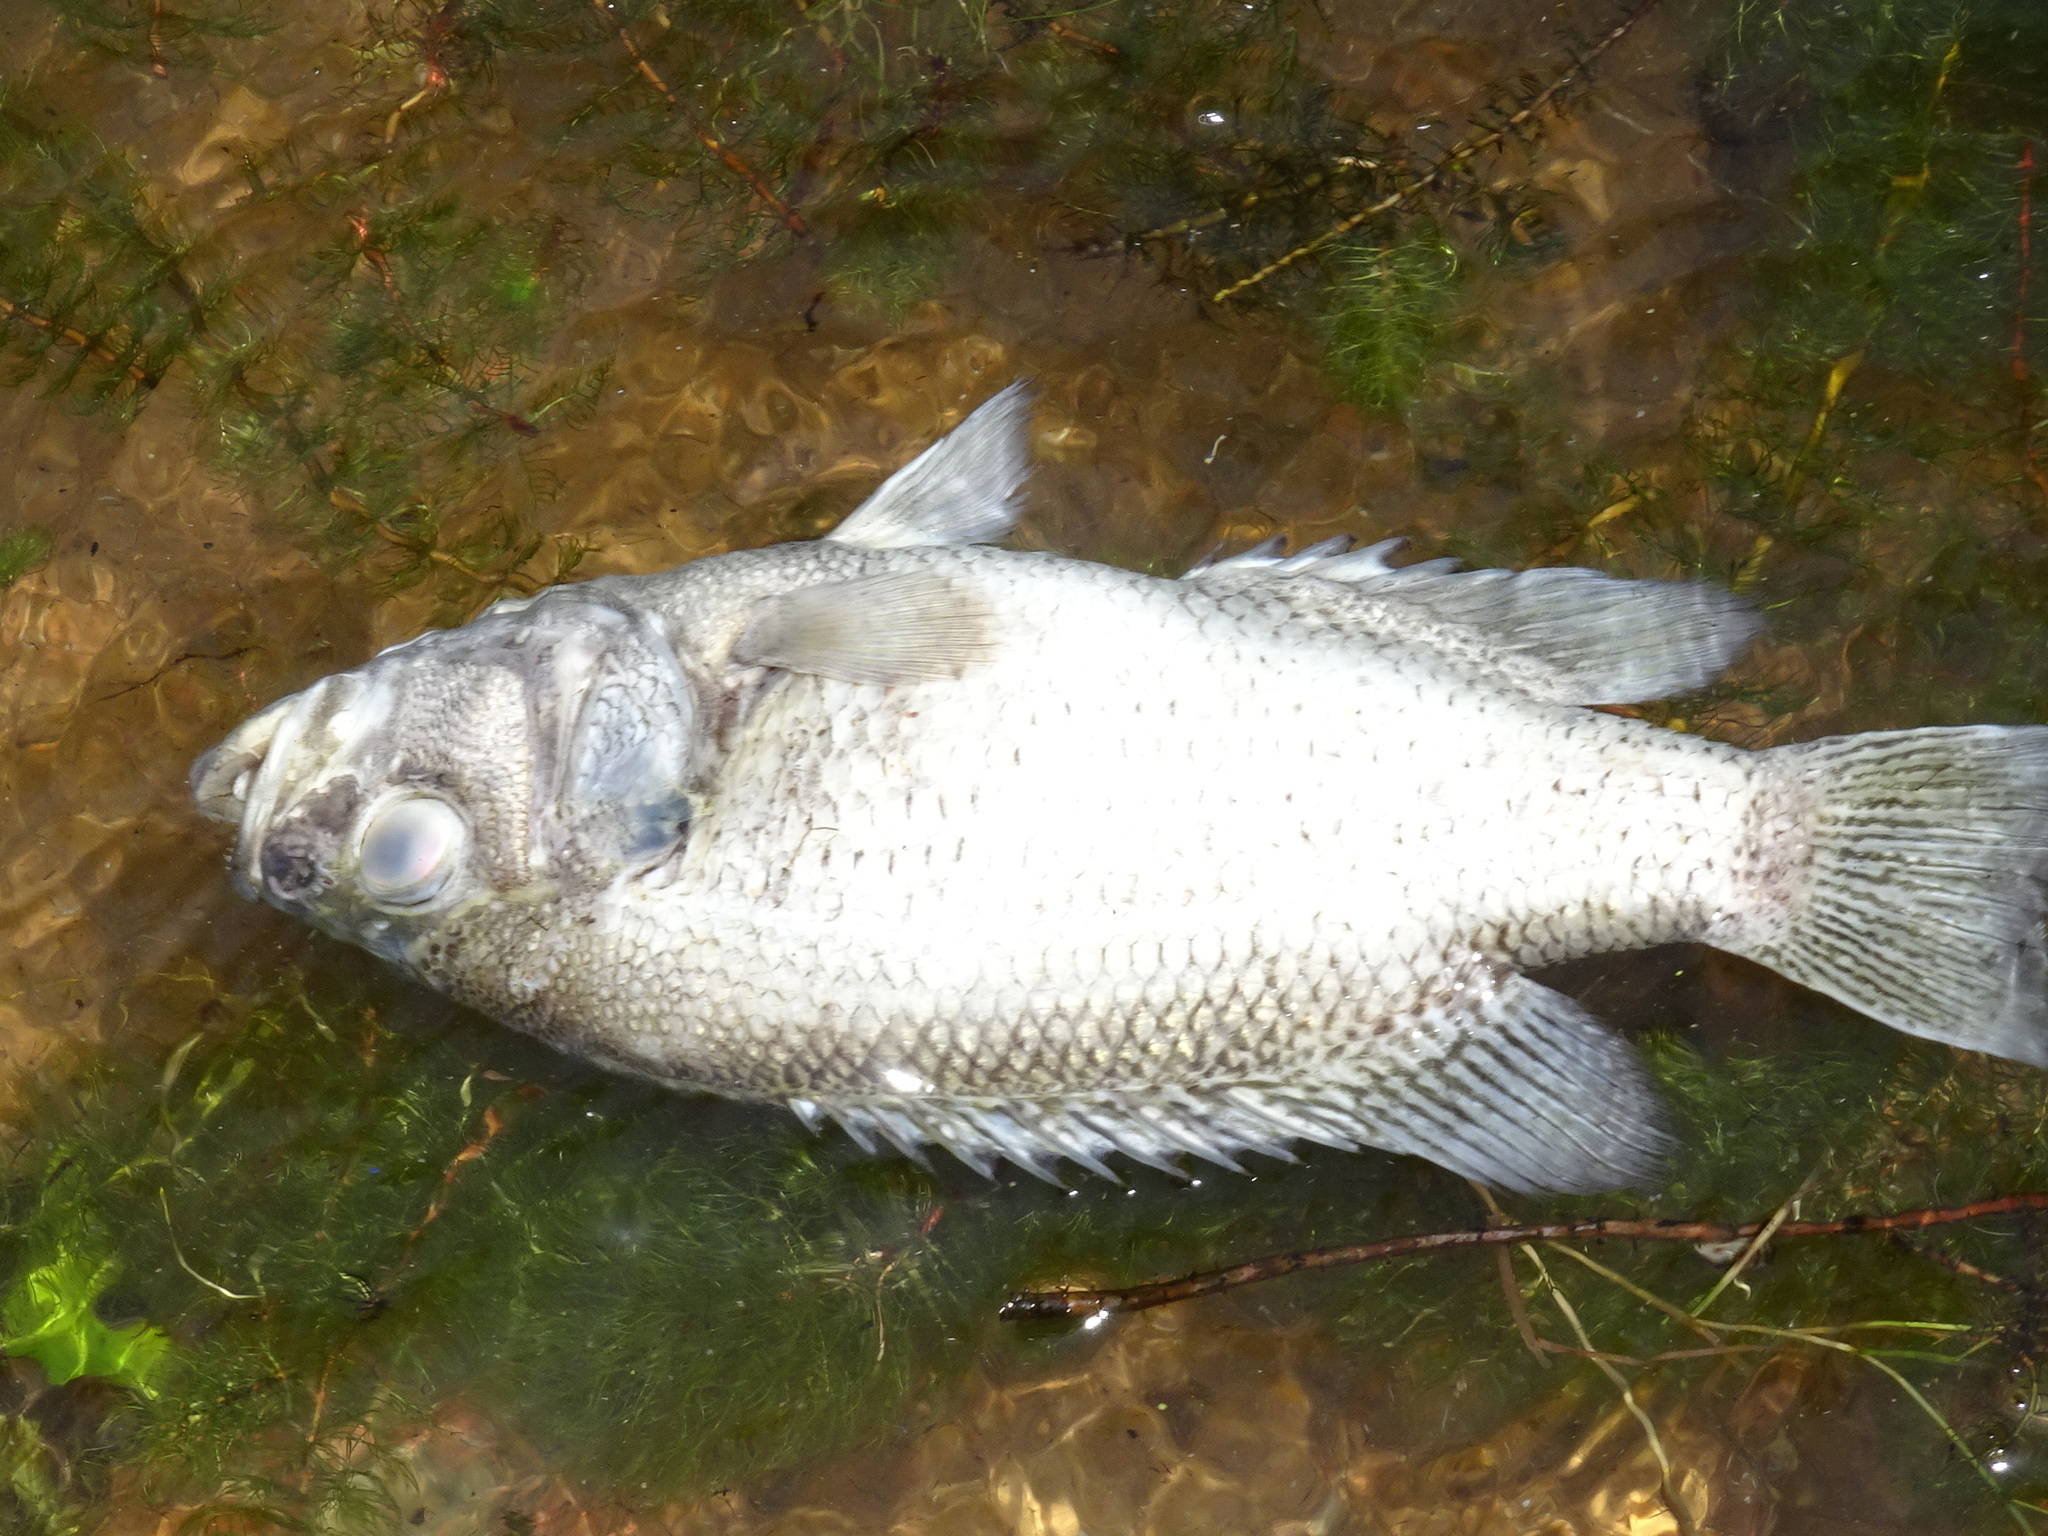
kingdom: Animalia
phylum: Chordata
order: Perciformes
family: Centrarchidae
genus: Ambloplites
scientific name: Ambloplites rupestris
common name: Rock bass
